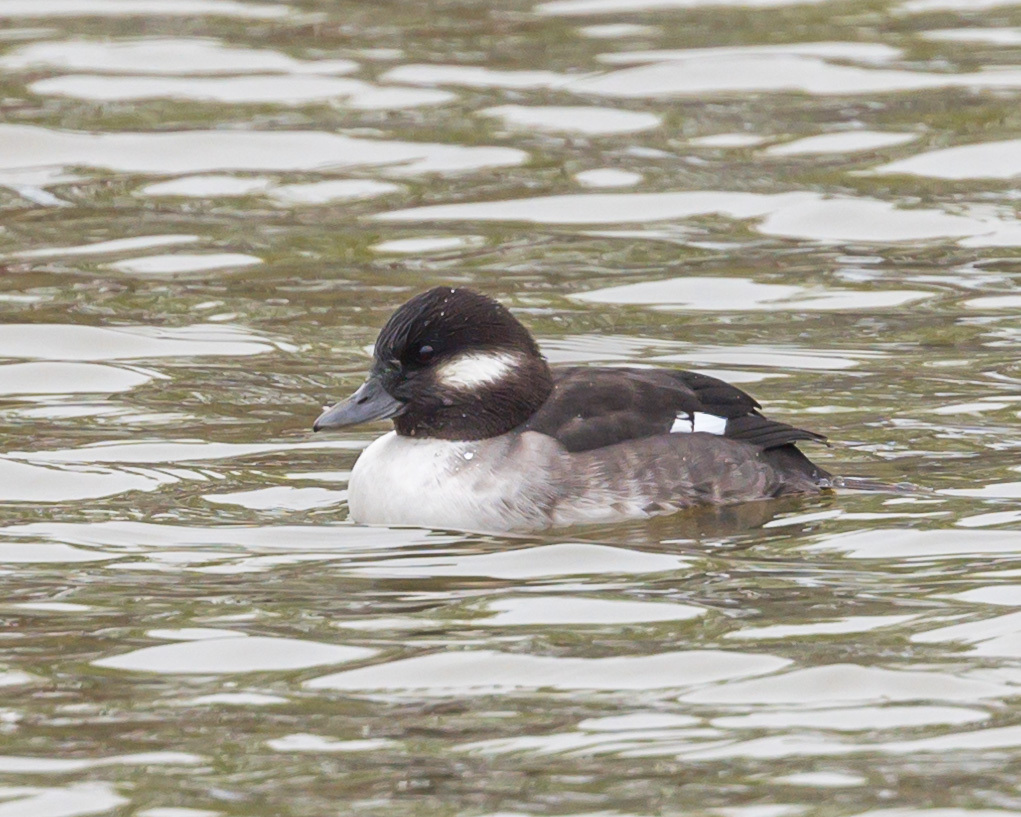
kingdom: Animalia
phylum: Chordata
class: Aves
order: Anseriformes
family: Anatidae
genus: Bucephala
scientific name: Bucephala albeola
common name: Bufflehead
